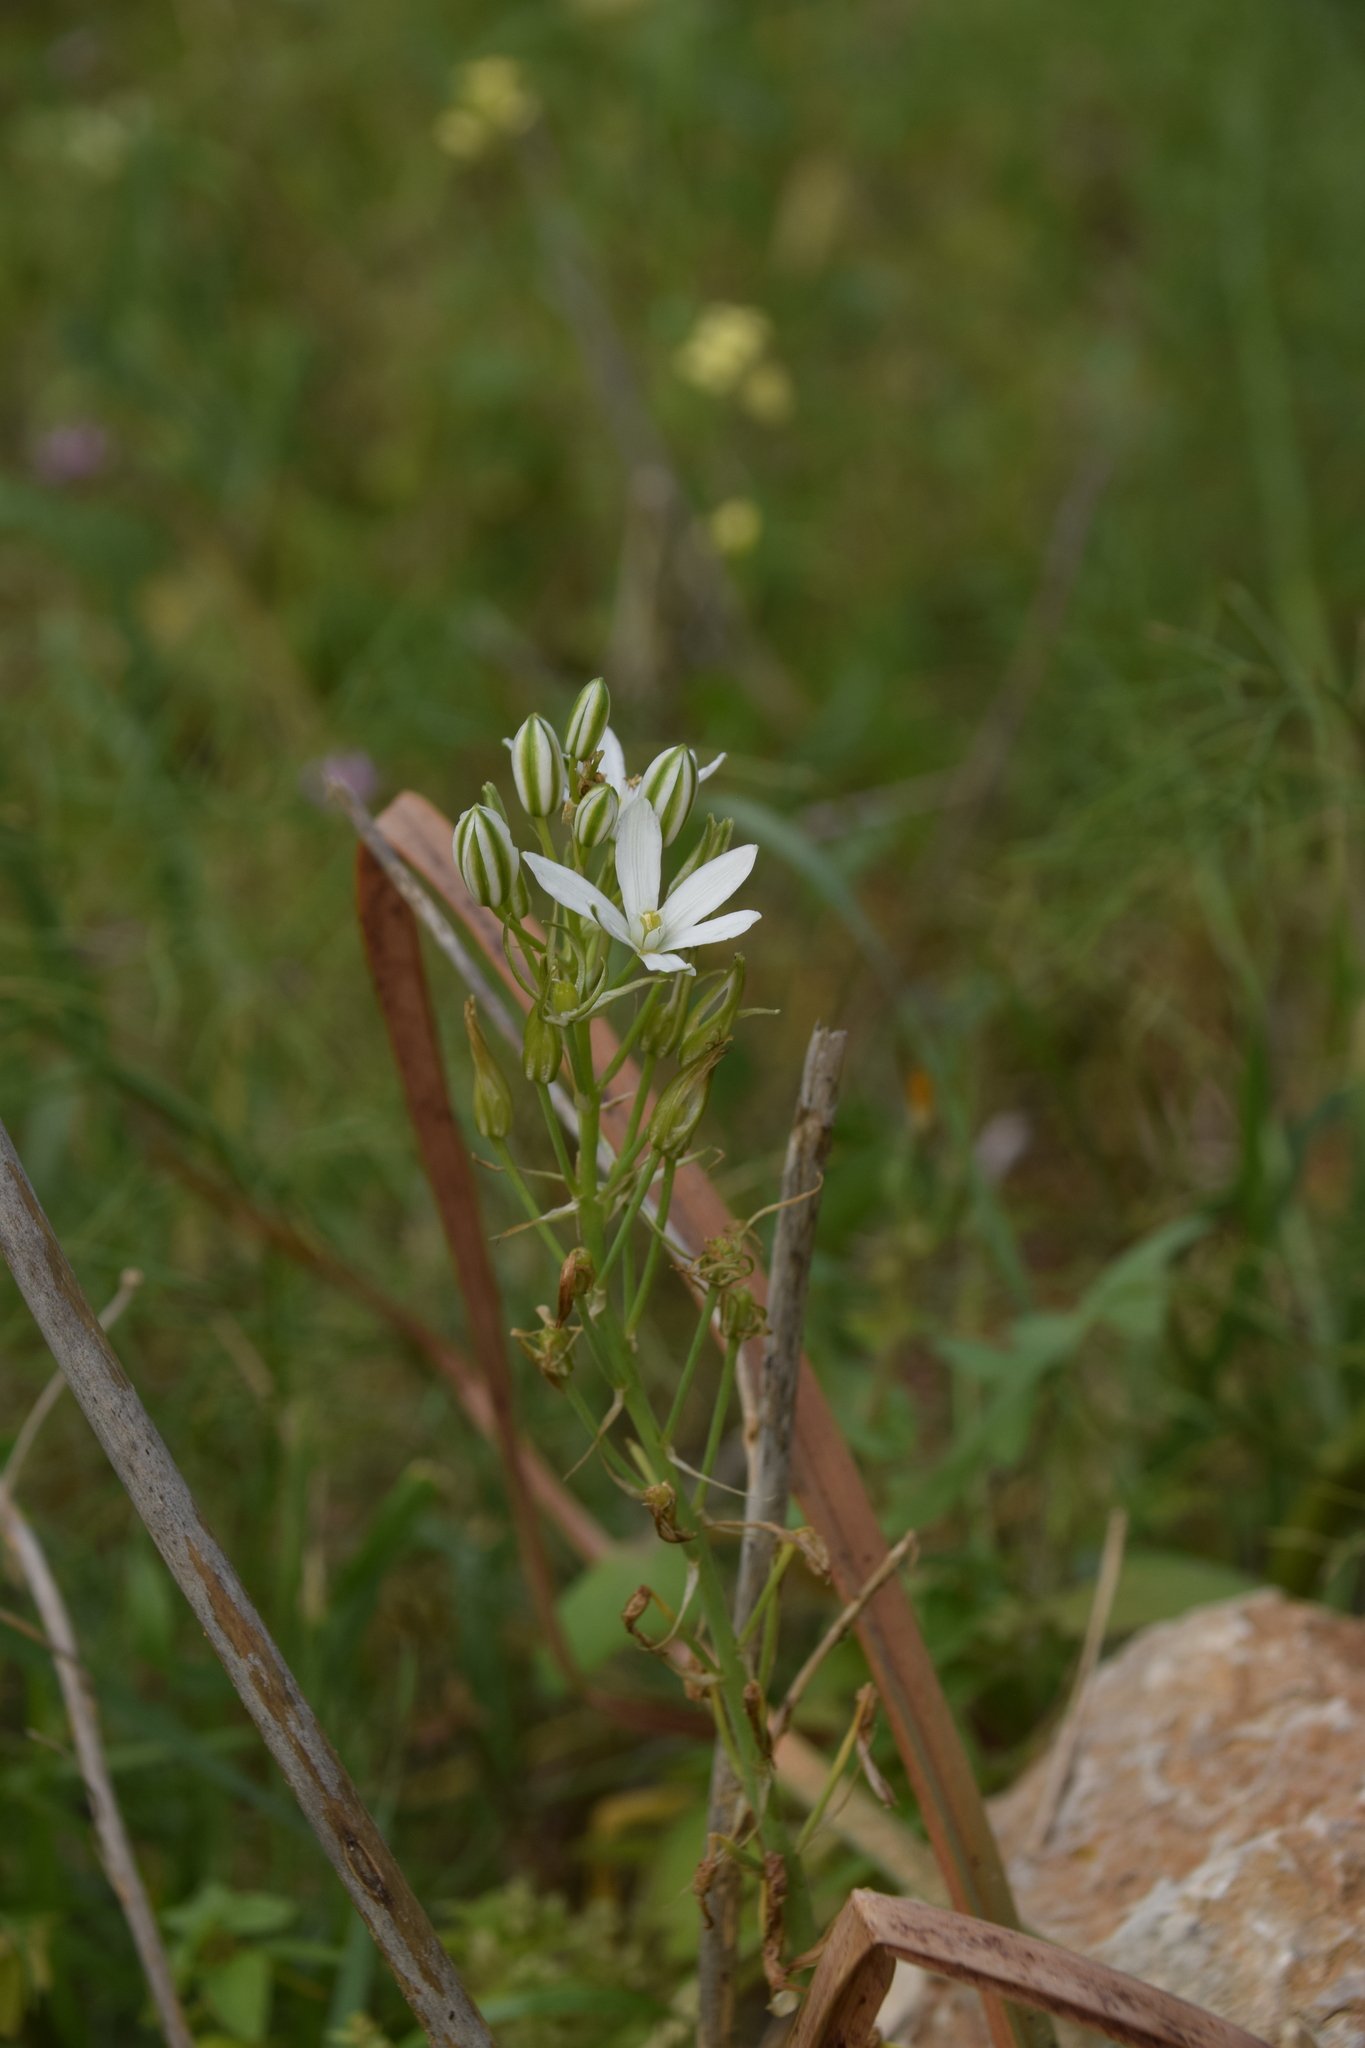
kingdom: Plantae
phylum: Tracheophyta
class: Liliopsida
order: Asparagales
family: Asparagaceae
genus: Ornithogalum
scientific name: Ornithogalum narbonense
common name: Bath-asparagus
